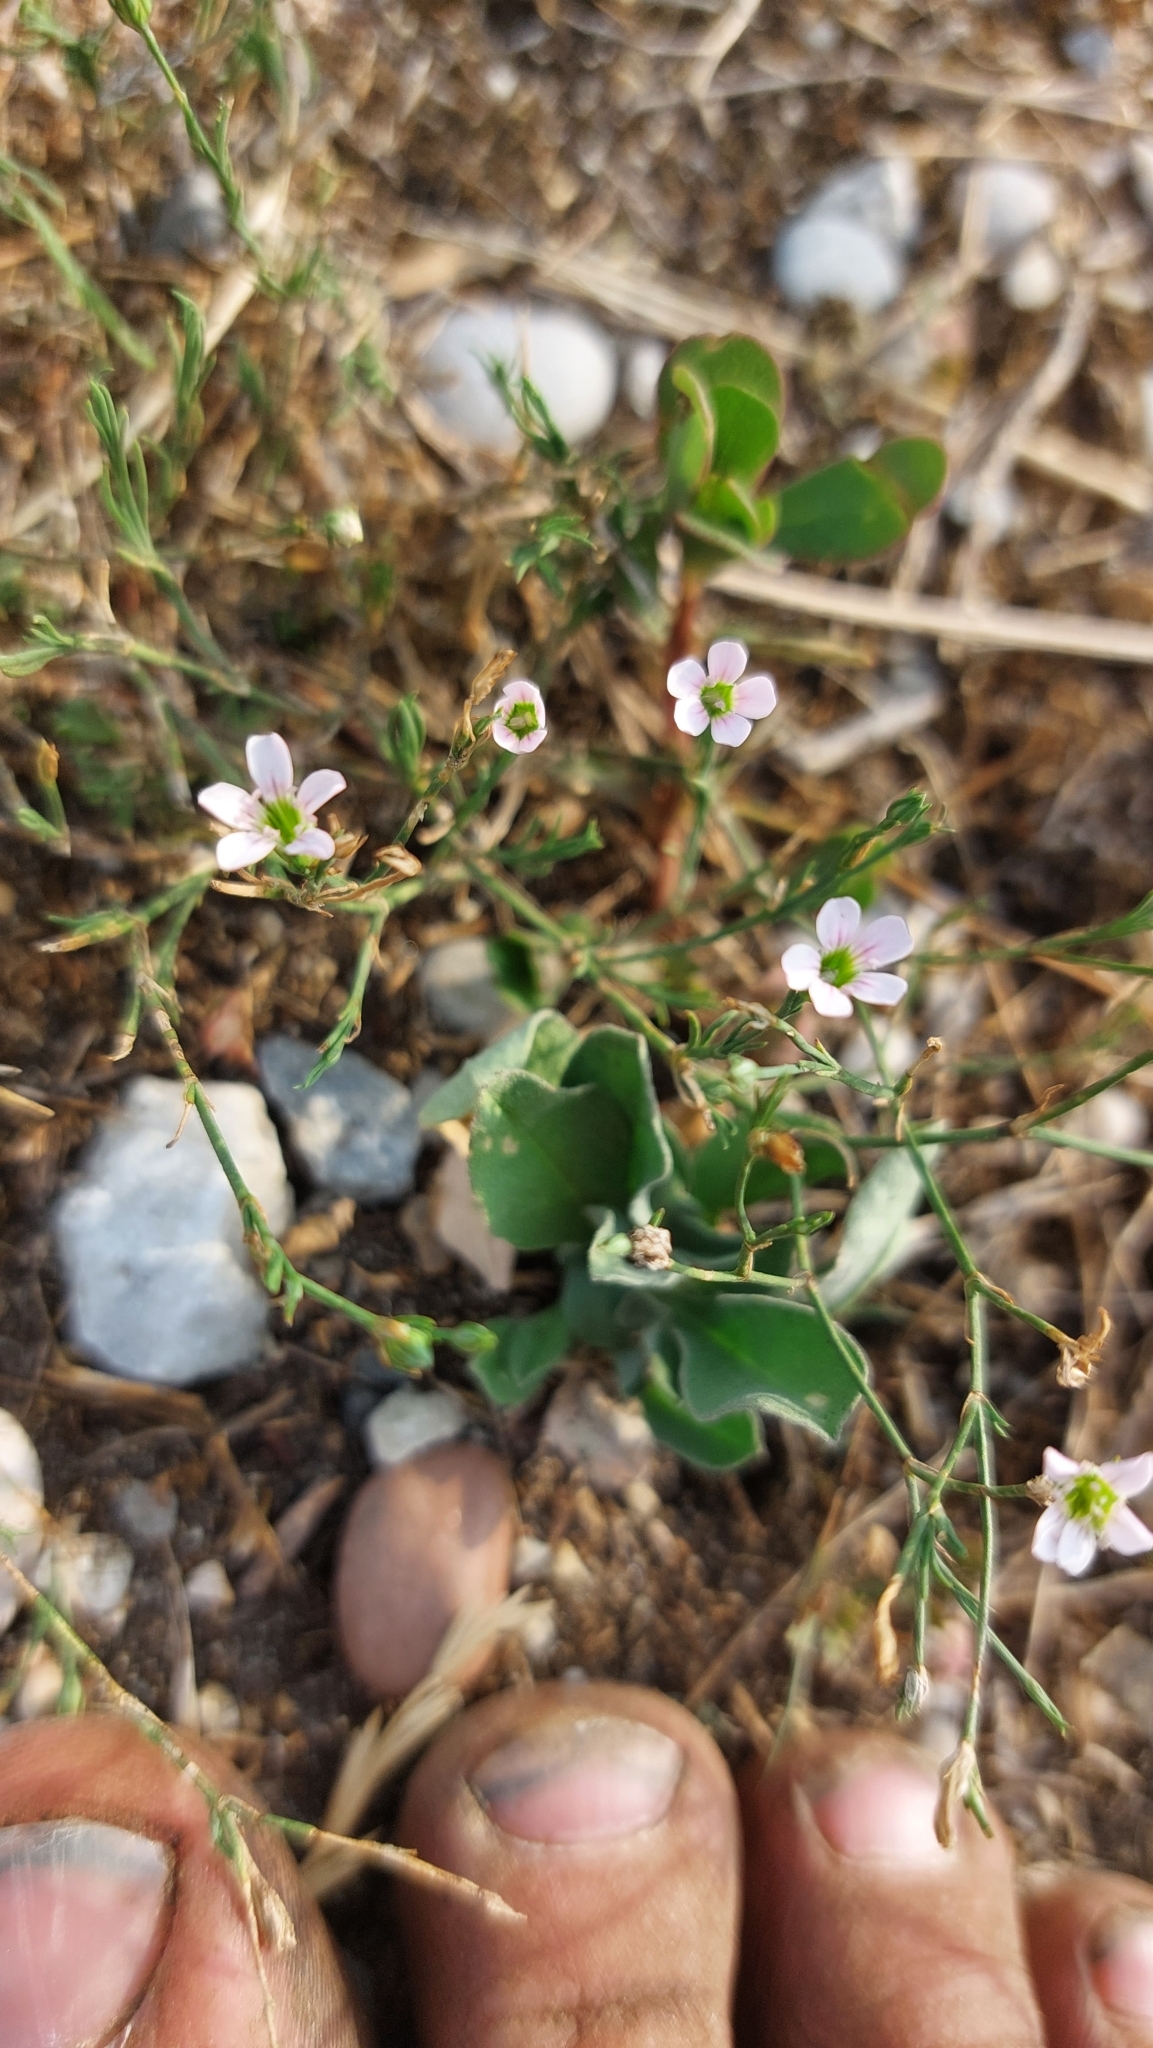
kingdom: Plantae
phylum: Tracheophyta
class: Magnoliopsida
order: Caryophyllales
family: Caryophyllaceae
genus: Petrorhagia
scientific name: Petrorhagia saxifraga
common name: Tunicflower
